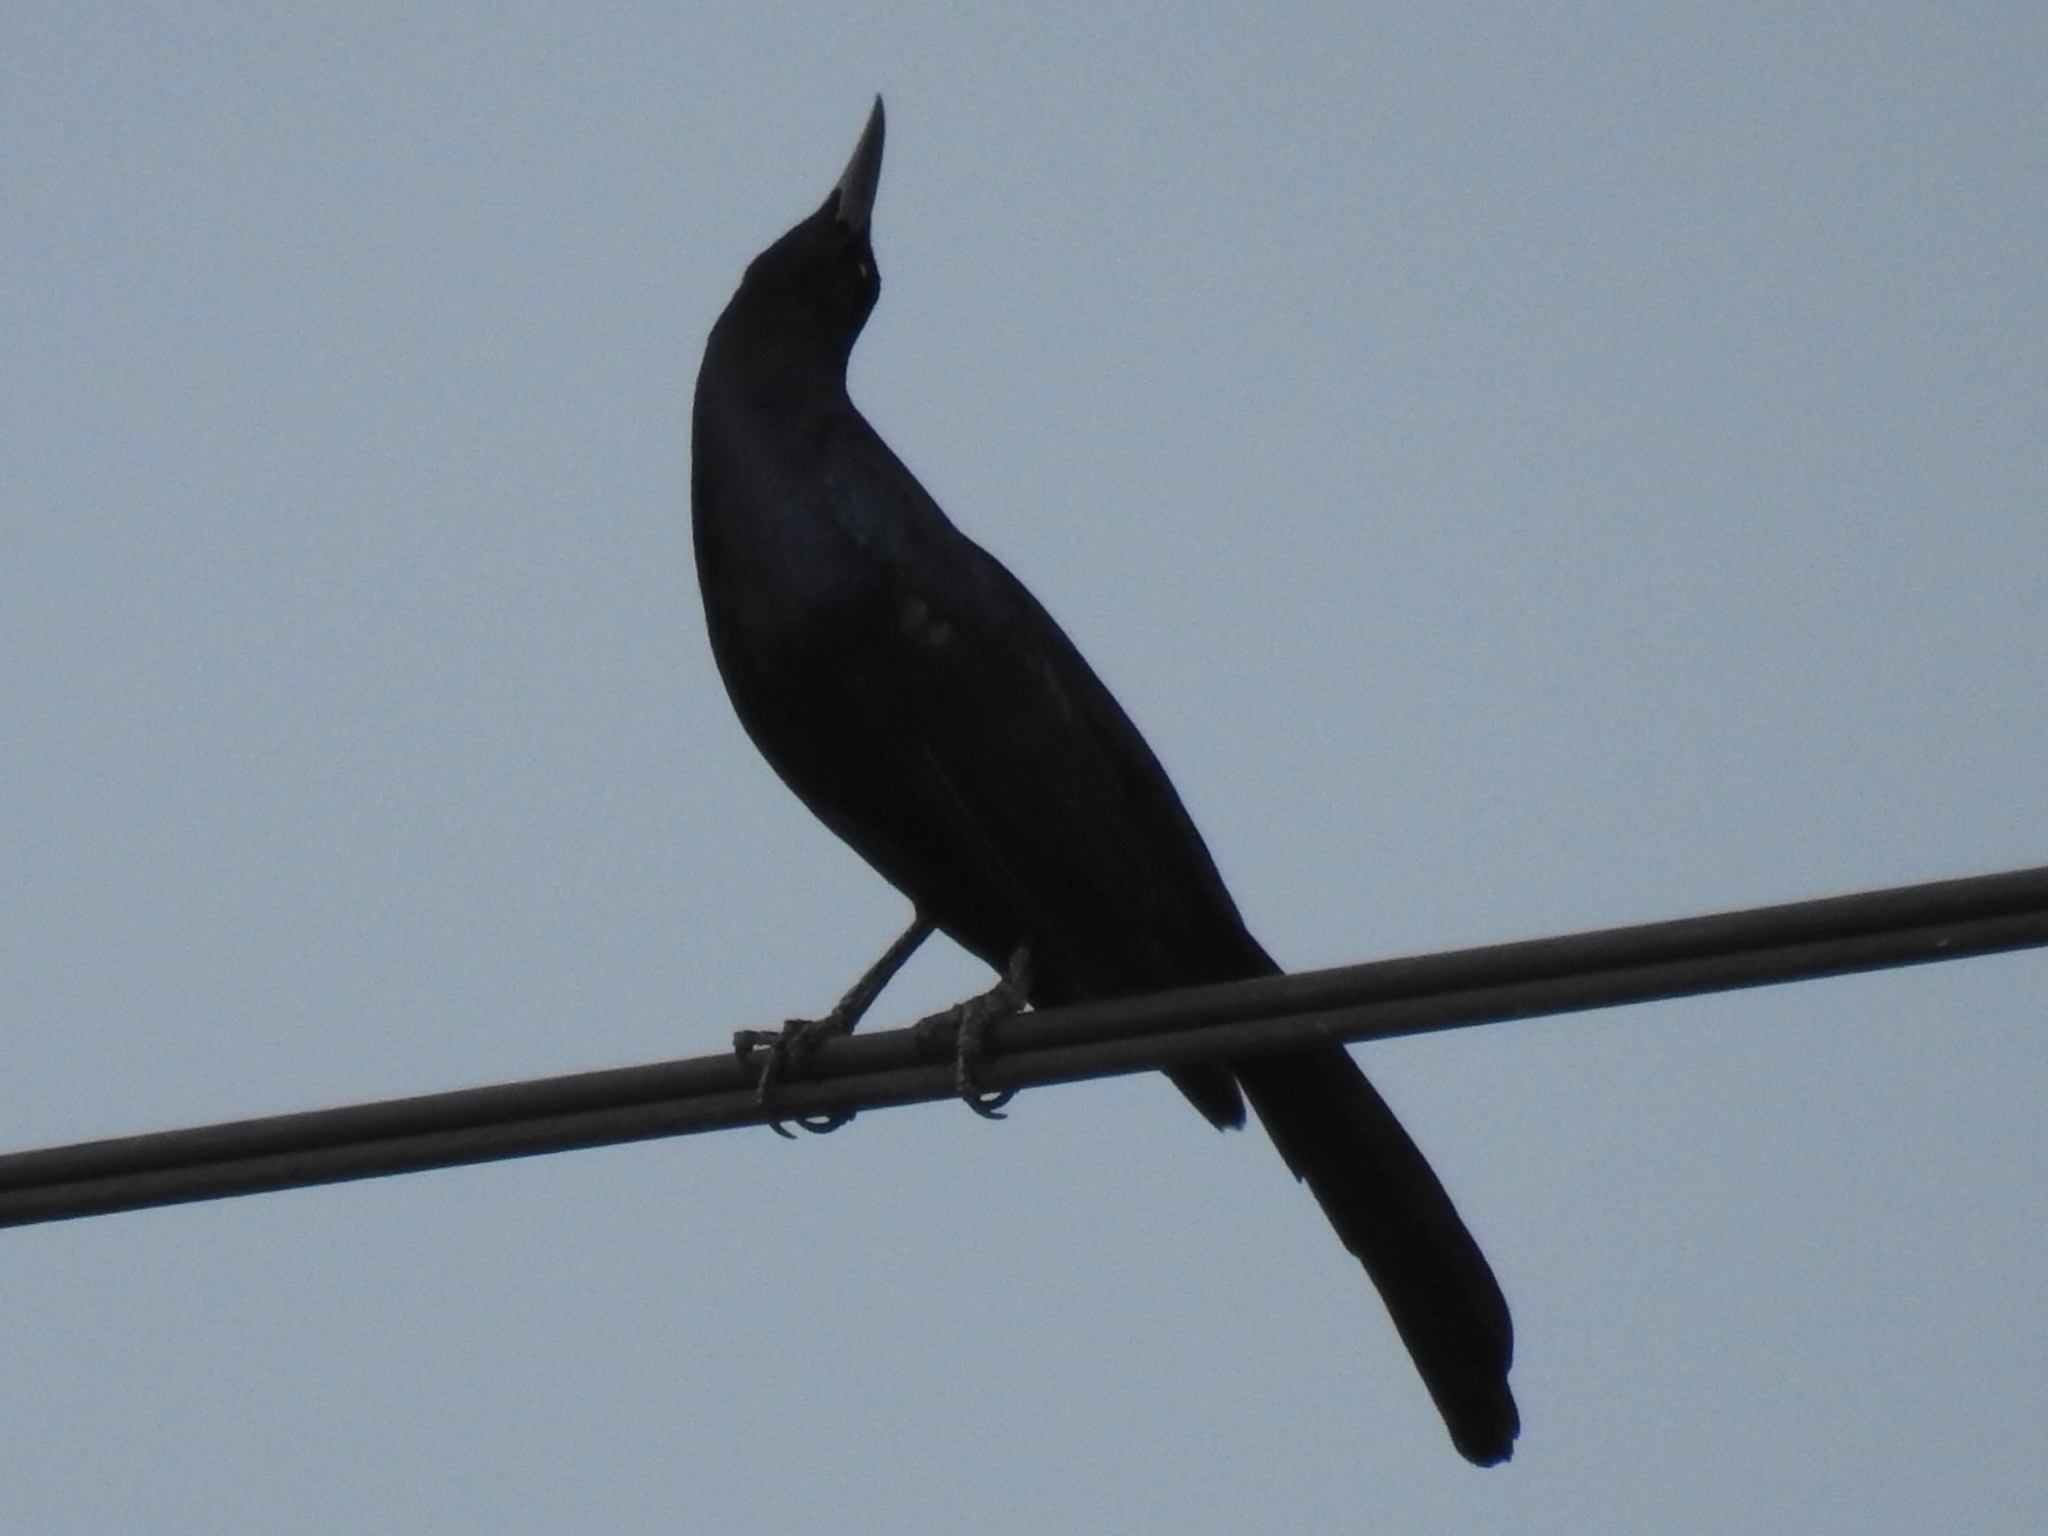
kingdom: Animalia
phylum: Chordata
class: Aves
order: Passeriformes
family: Icteridae
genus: Quiscalus
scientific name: Quiscalus mexicanus
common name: Great-tailed grackle
